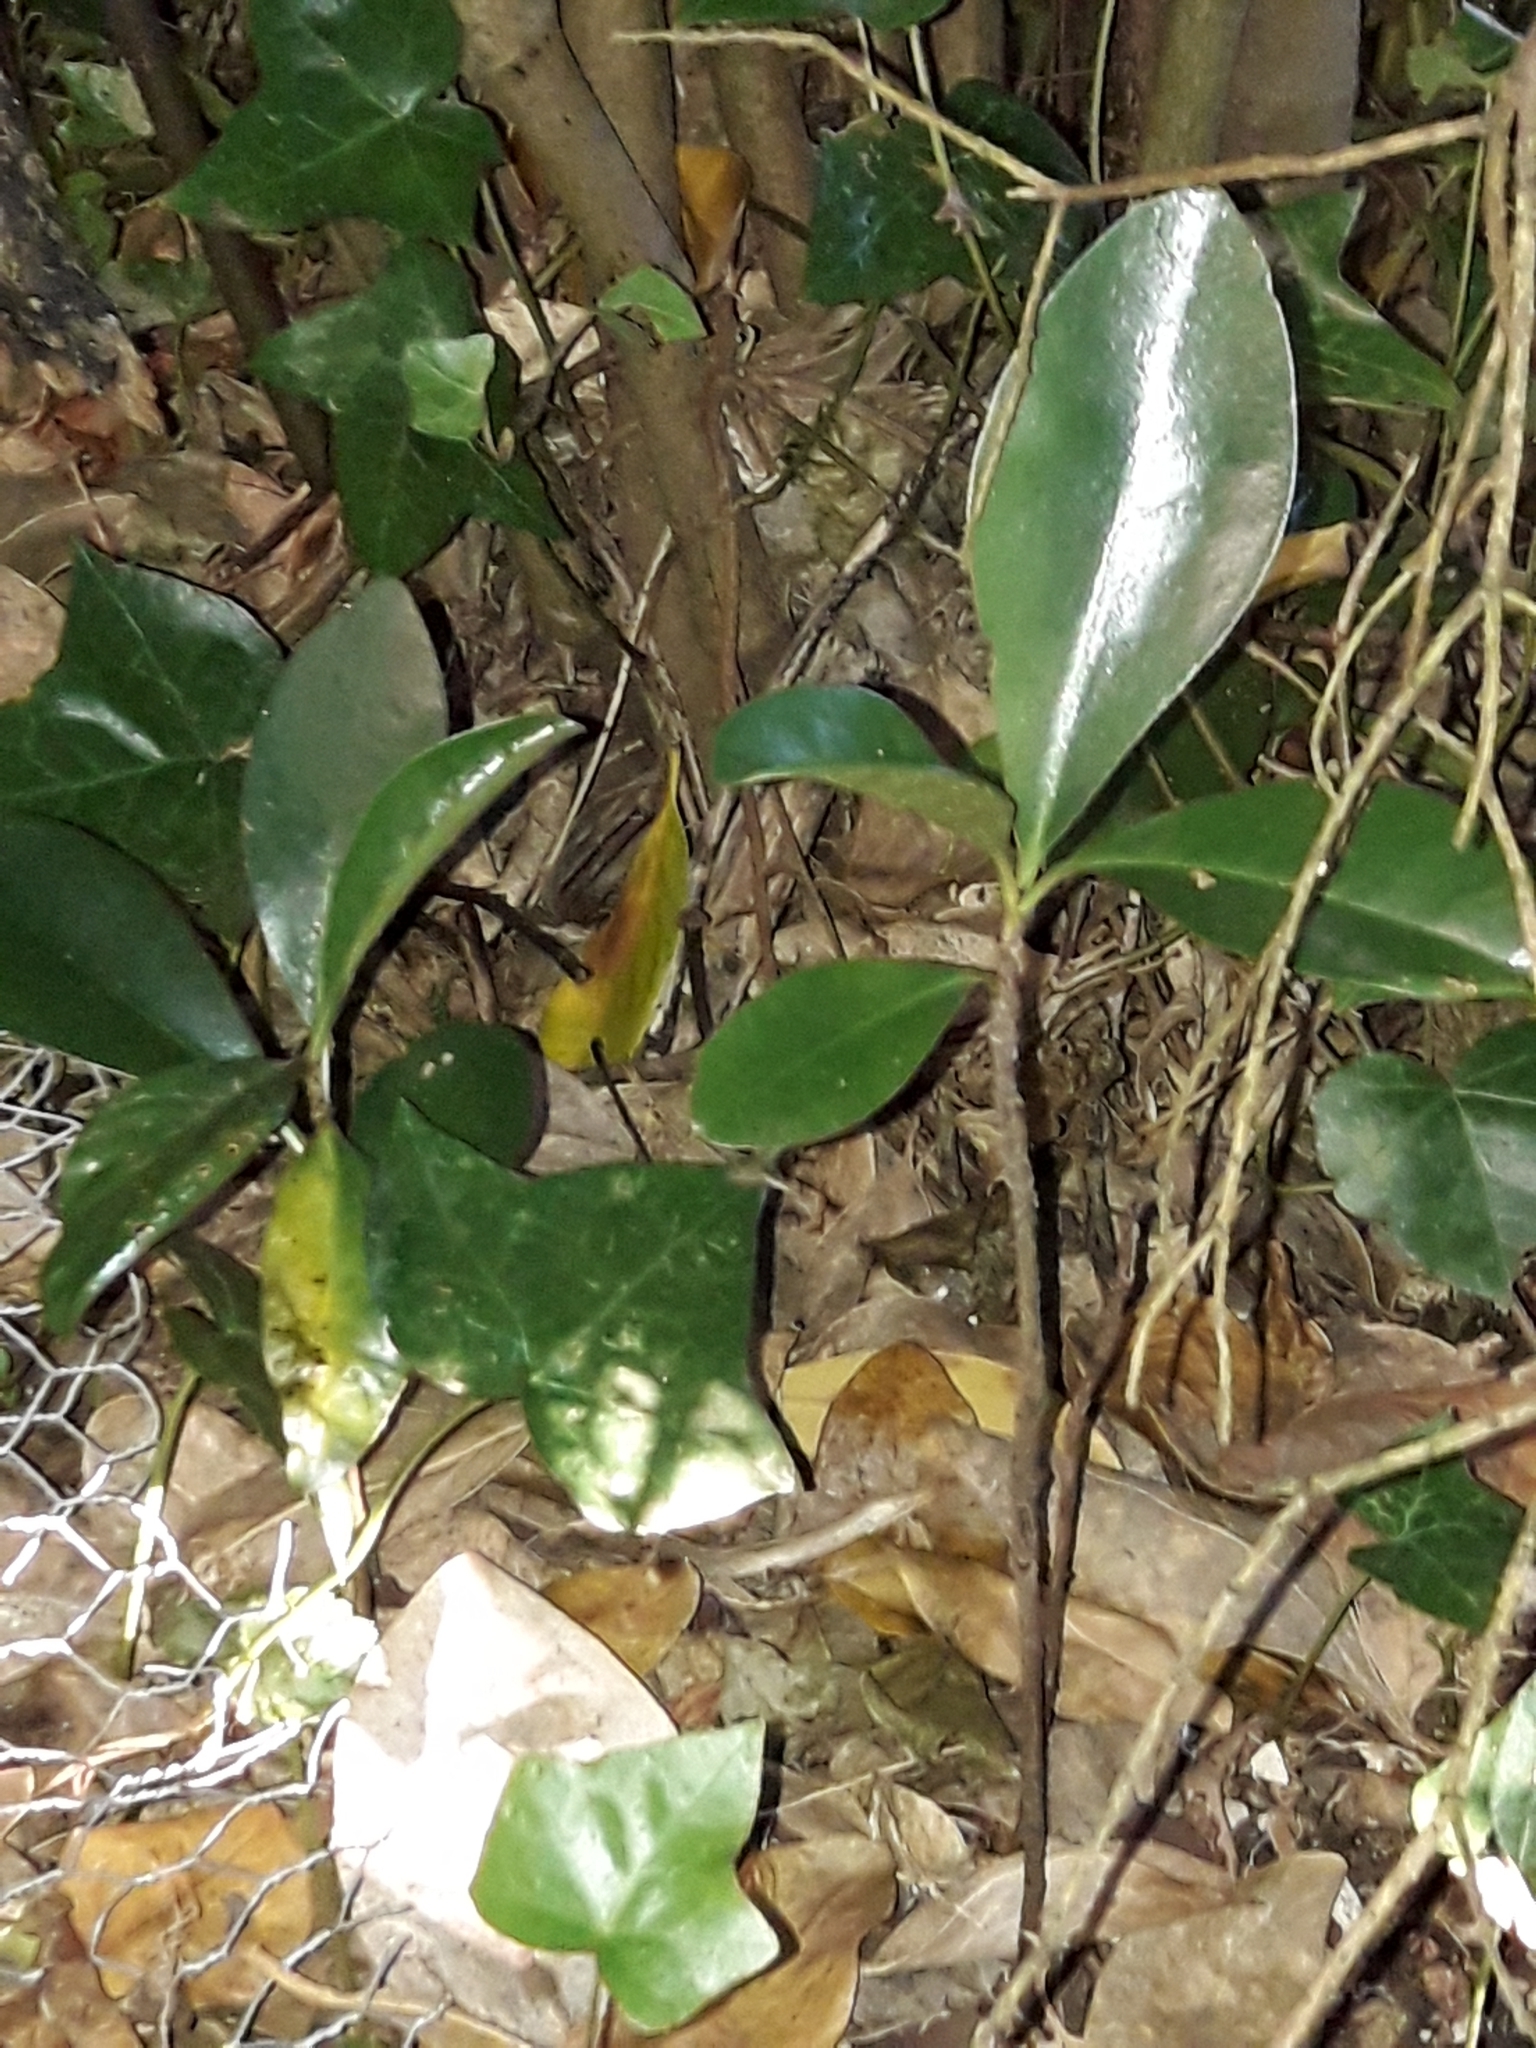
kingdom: Plantae
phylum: Tracheophyta
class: Magnoliopsida
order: Cucurbitales
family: Corynocarpaceae
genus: Corynocarpus
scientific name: Corynocarpus laevigatus
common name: New zealand laurel
